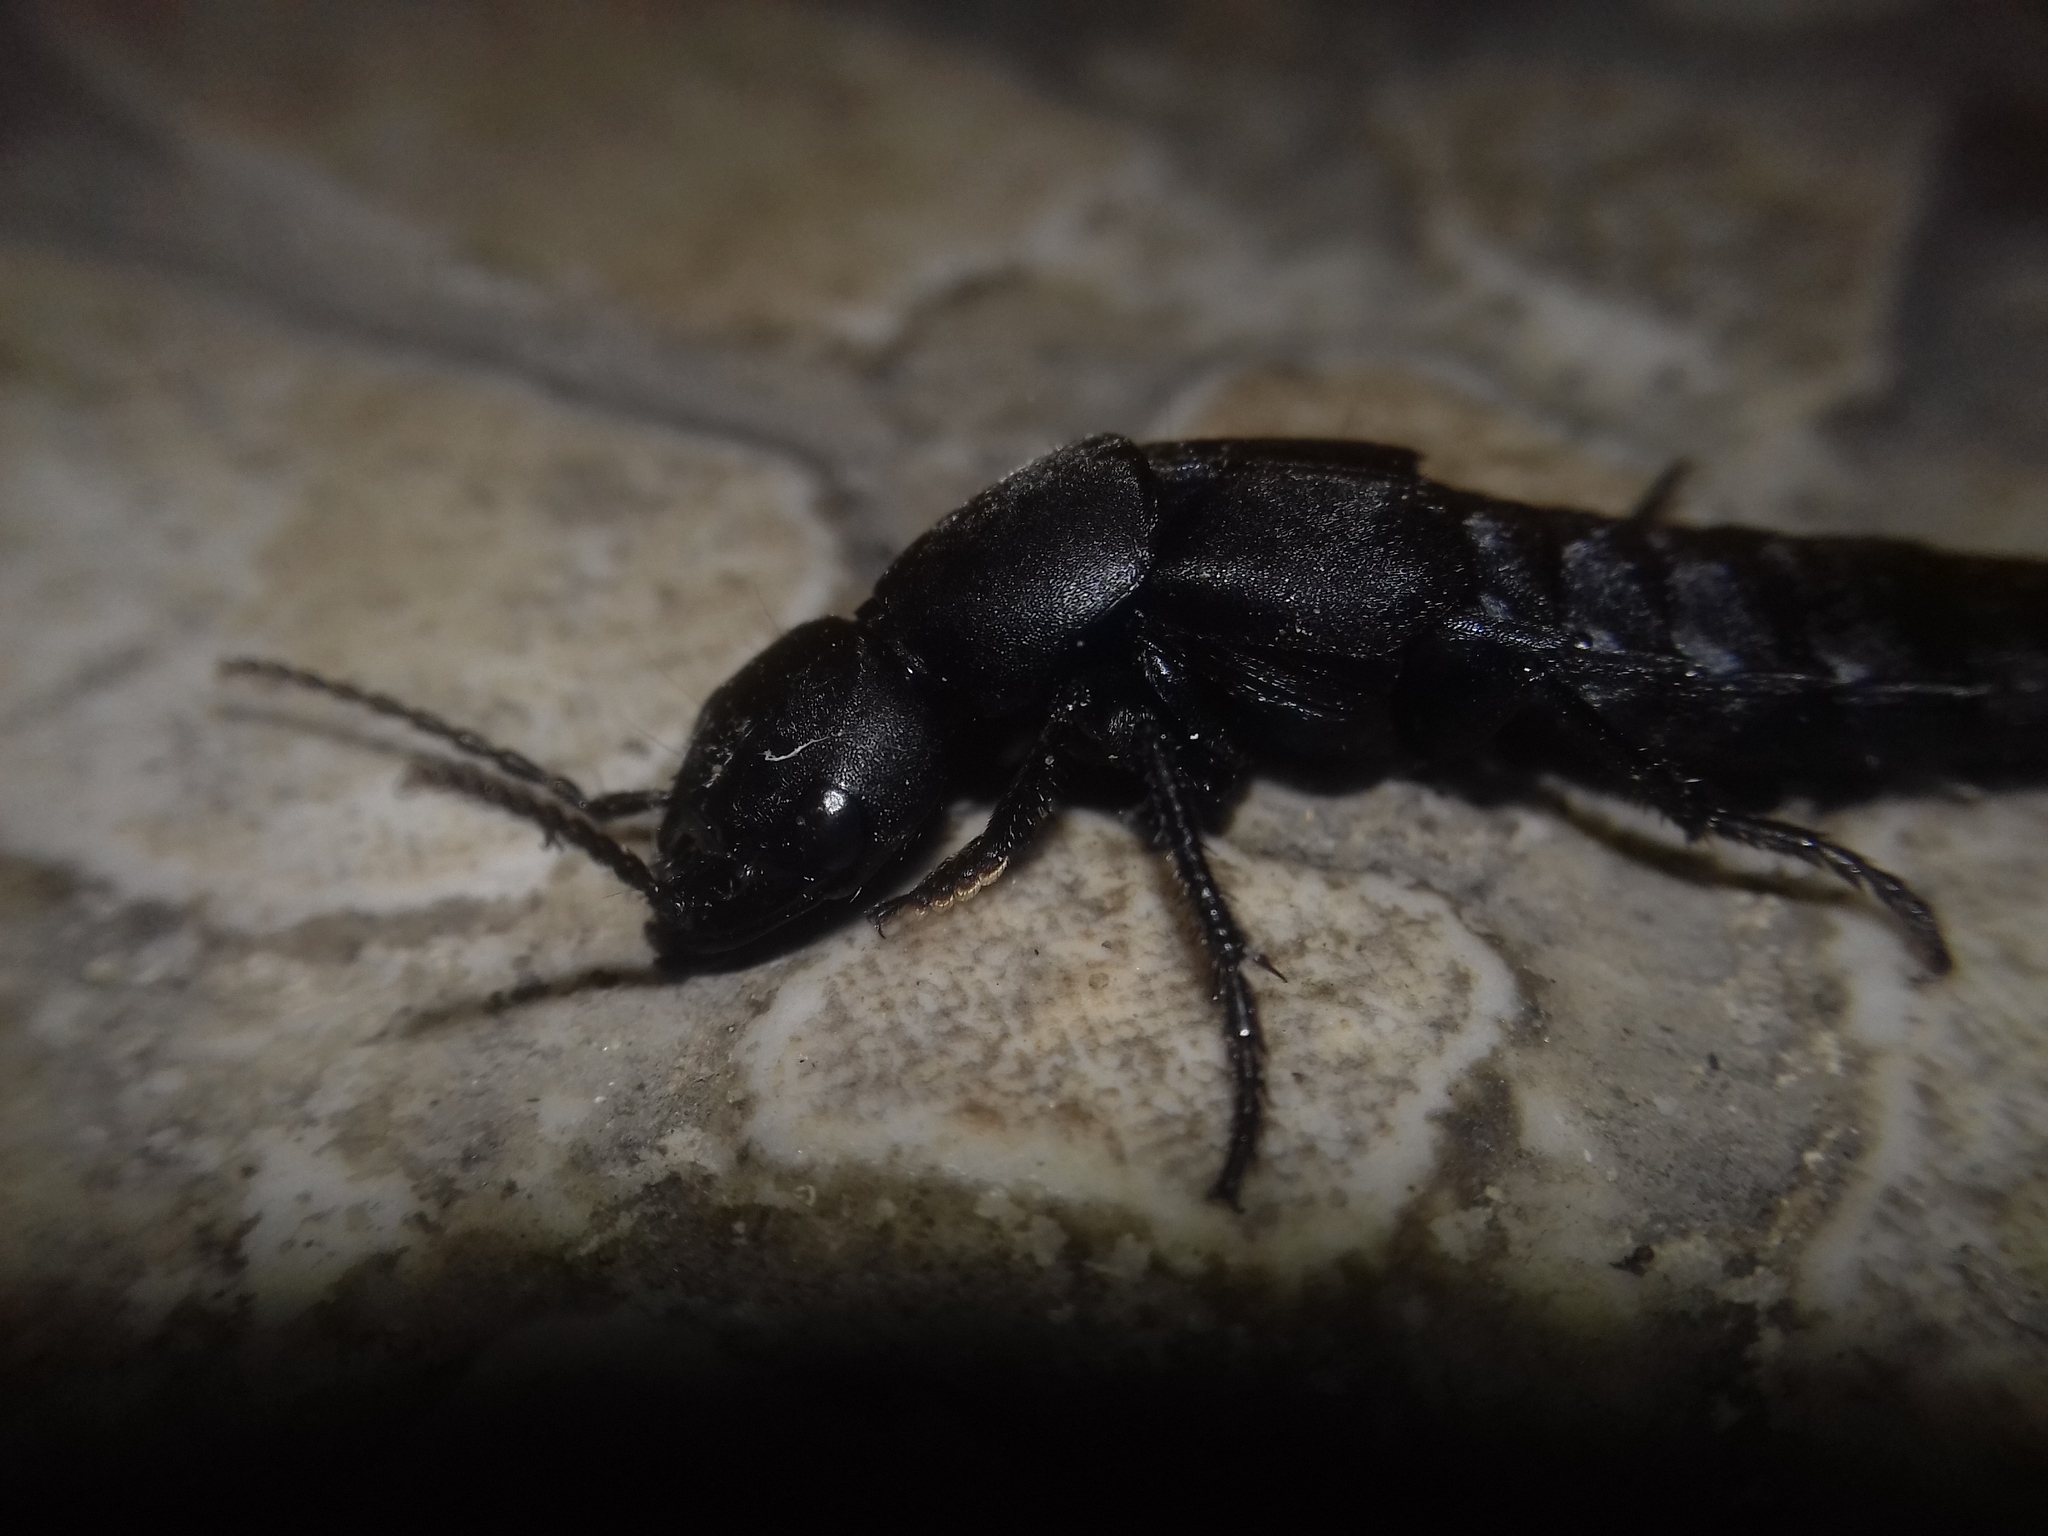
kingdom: Animalia
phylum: Arthropoda
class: Insecta
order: Coleoptera
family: Staphylinidae
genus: Ocypus
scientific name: Ocypus curtipennis
